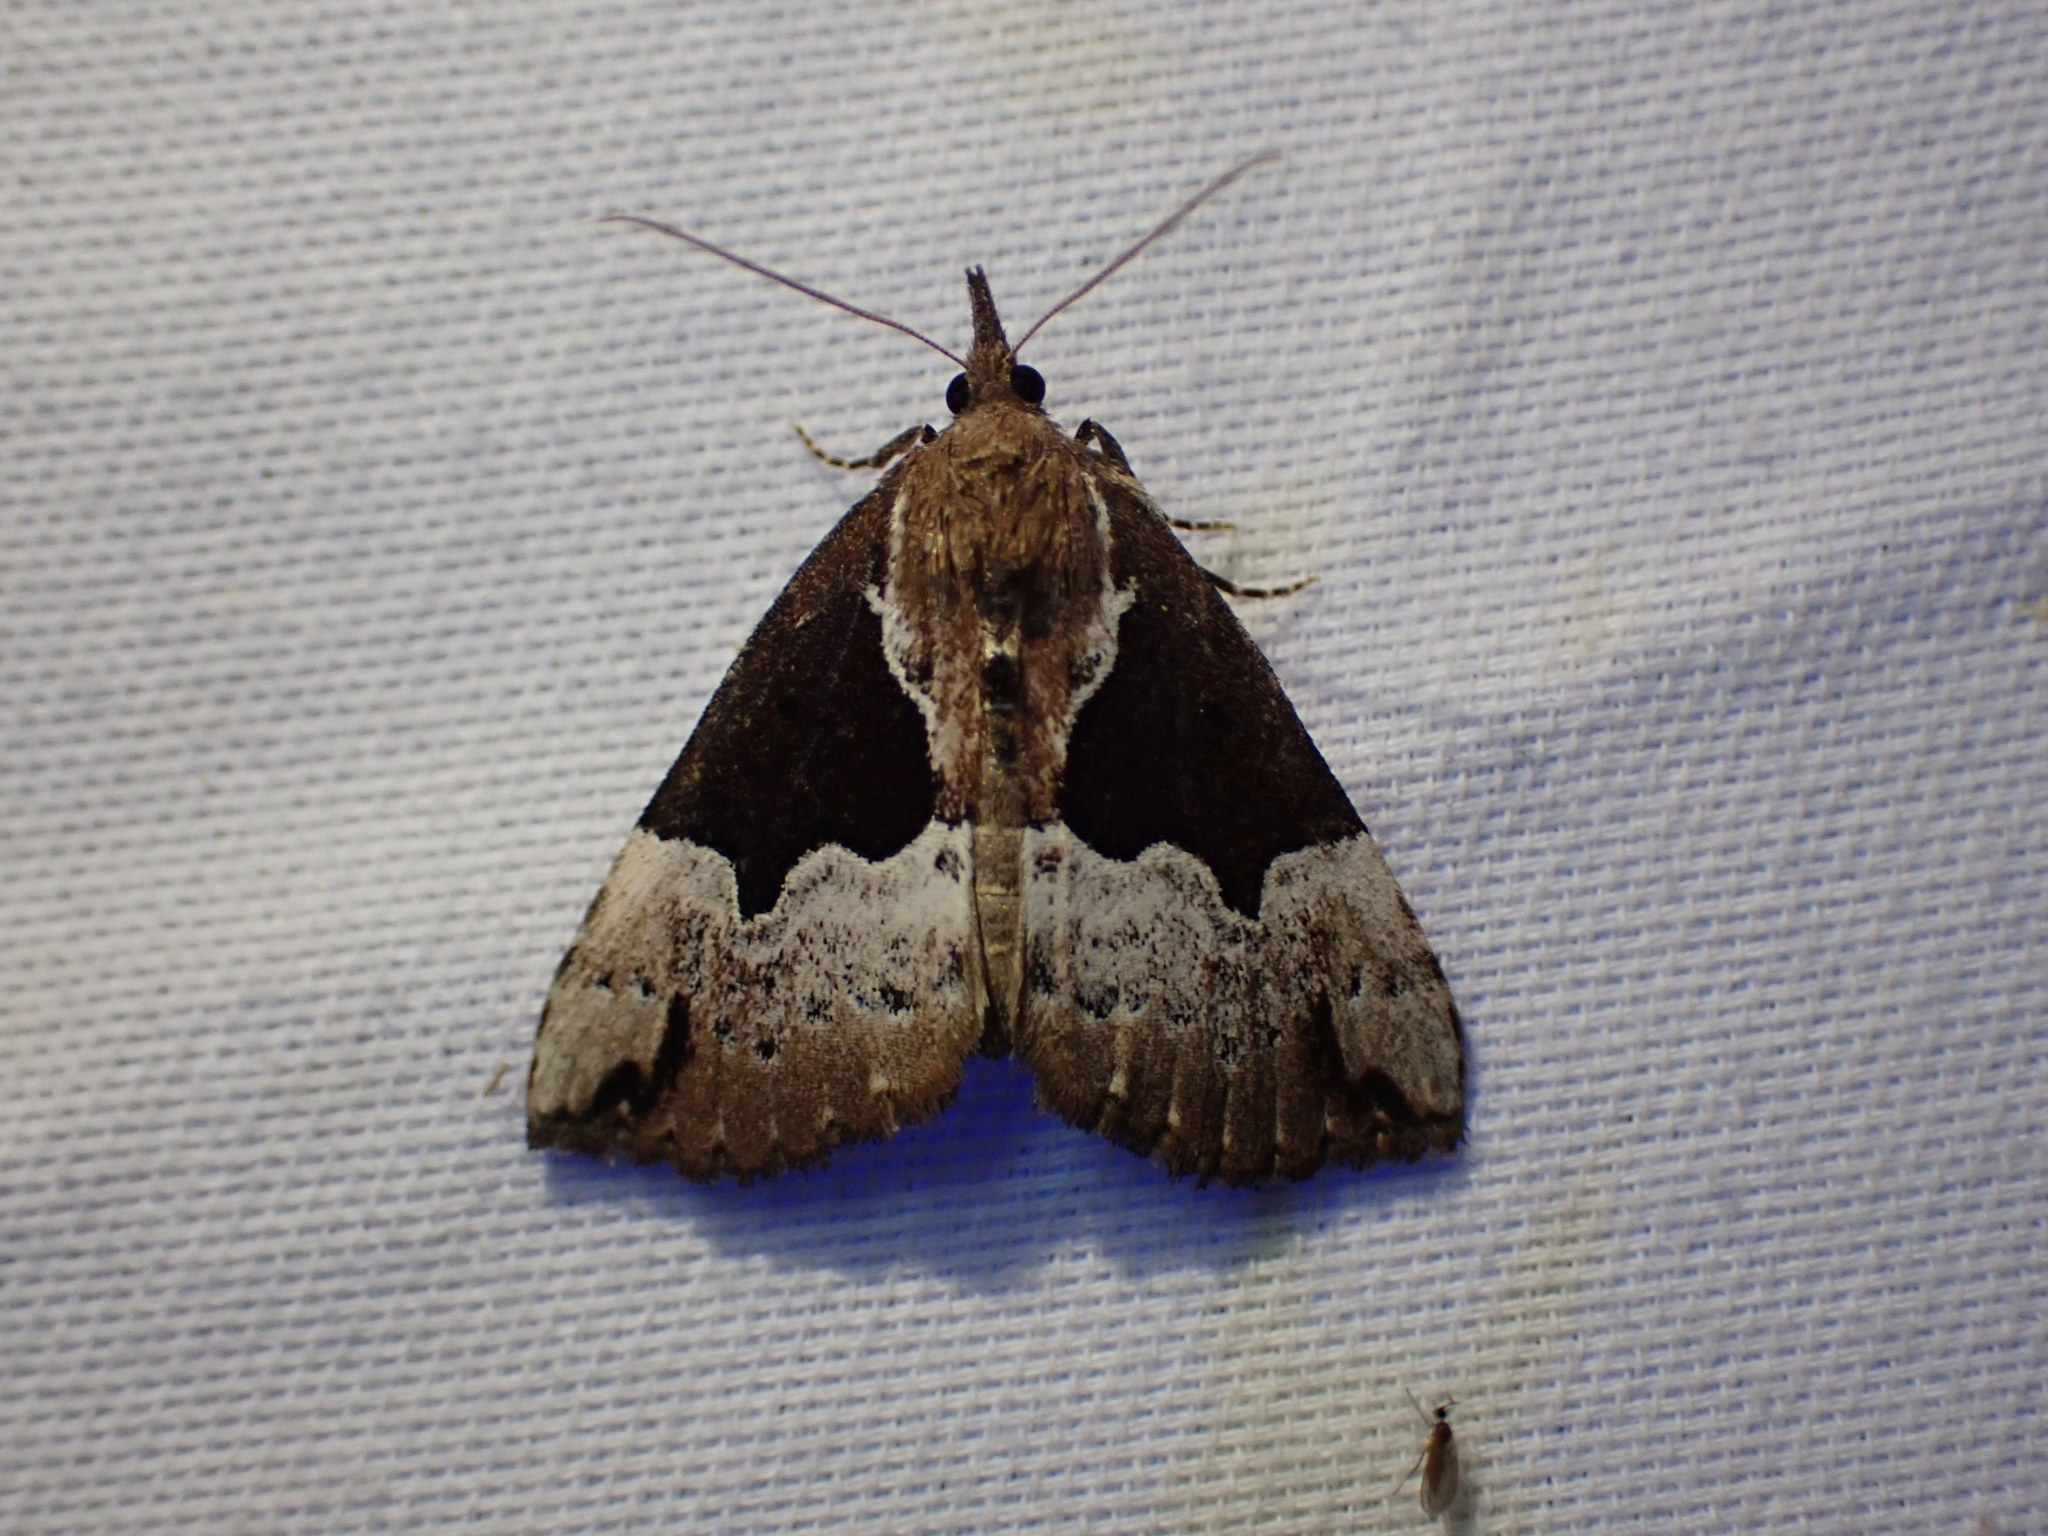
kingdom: Animalia
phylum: Arthropoda
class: Insecta
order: Lepidoptera
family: Erebidae
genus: Hypena
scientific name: Hypena bijugalis
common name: Dimorphic bomolocha moth
